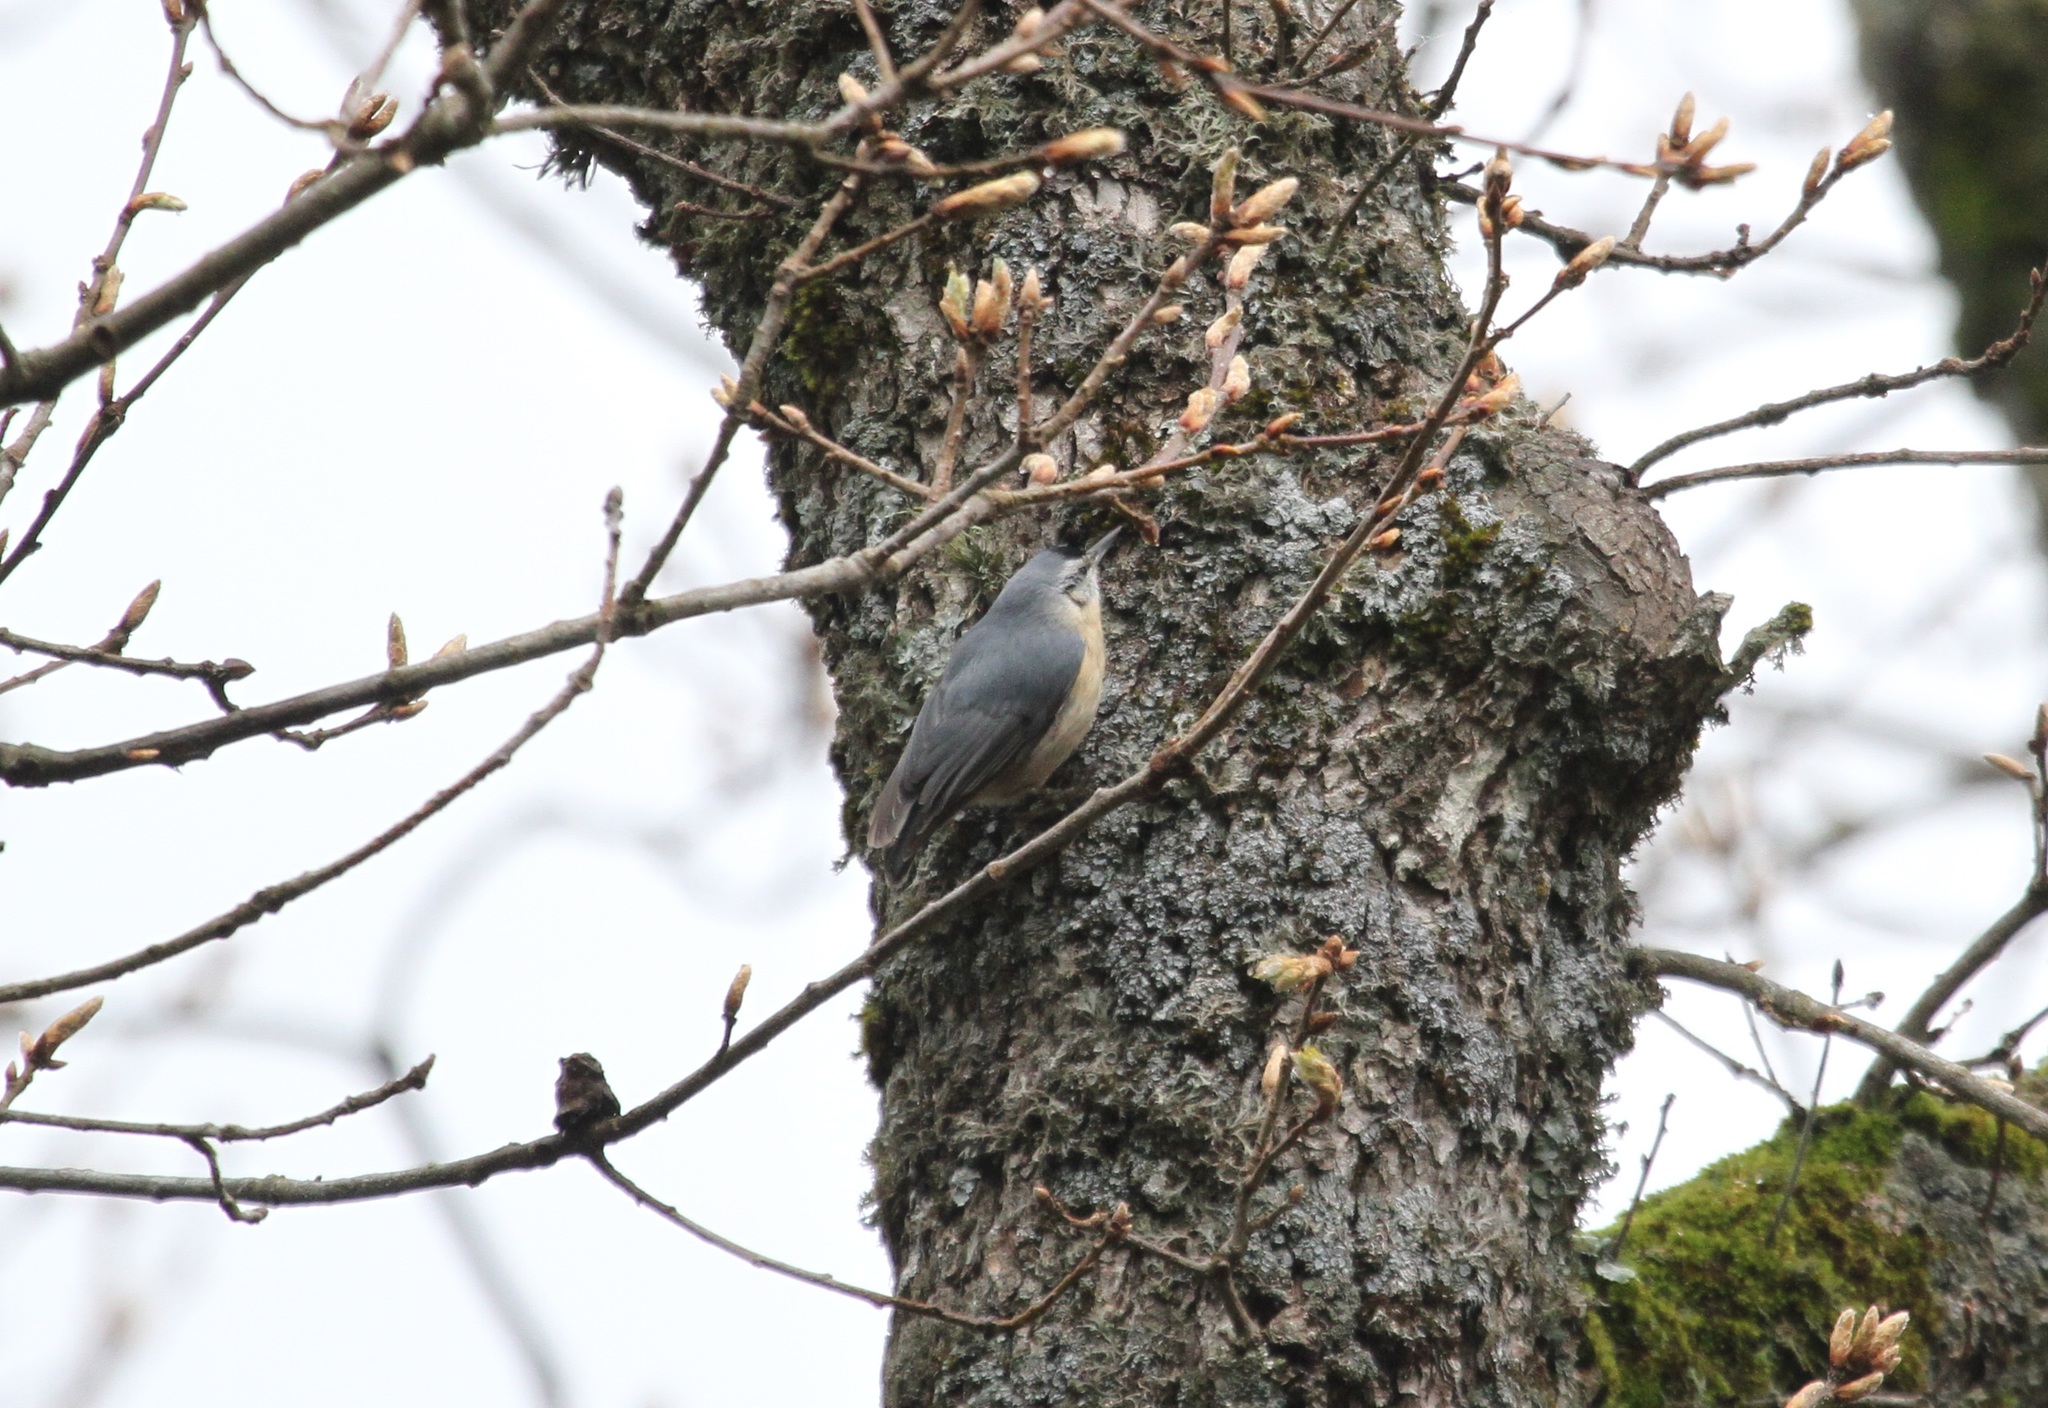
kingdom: Animalia
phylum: Chordata
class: Aves
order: Passeriformes
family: Sittidae
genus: Sitta
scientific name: Sitta ledanti
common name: Algerian nuthatch
